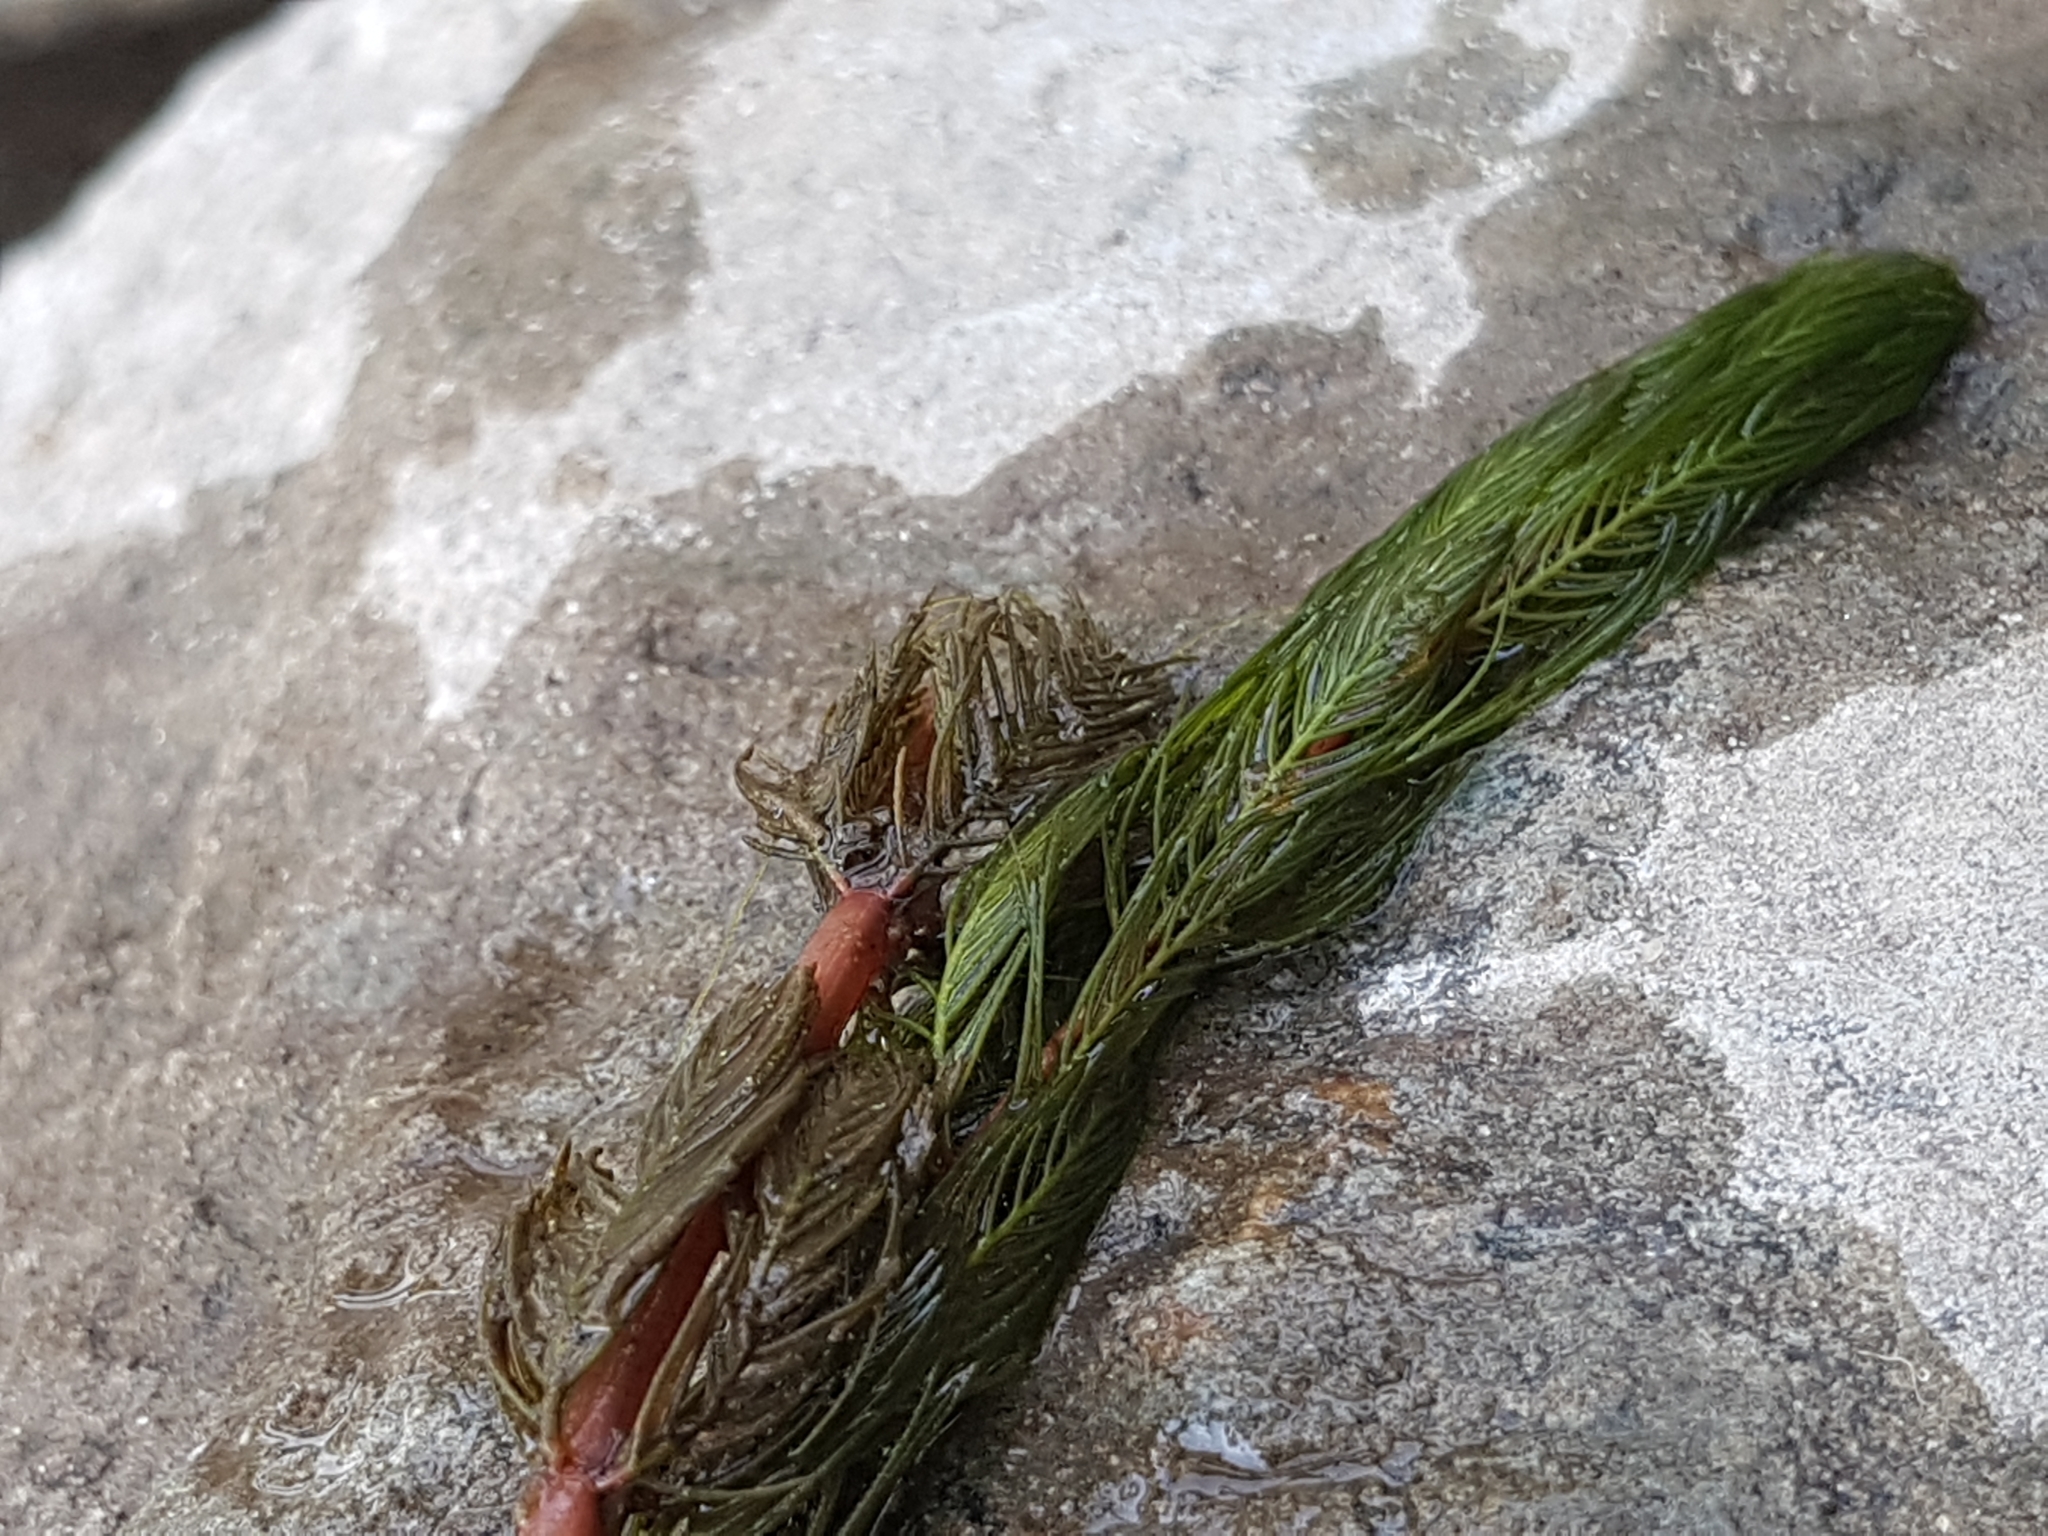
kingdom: Plantae
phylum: Tracheophyta
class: Magnoliopsida
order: Saxifragales
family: Haloragaceae
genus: Myriophyllum
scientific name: Myriophyllum spicatum
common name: Spiked water-milfoil
